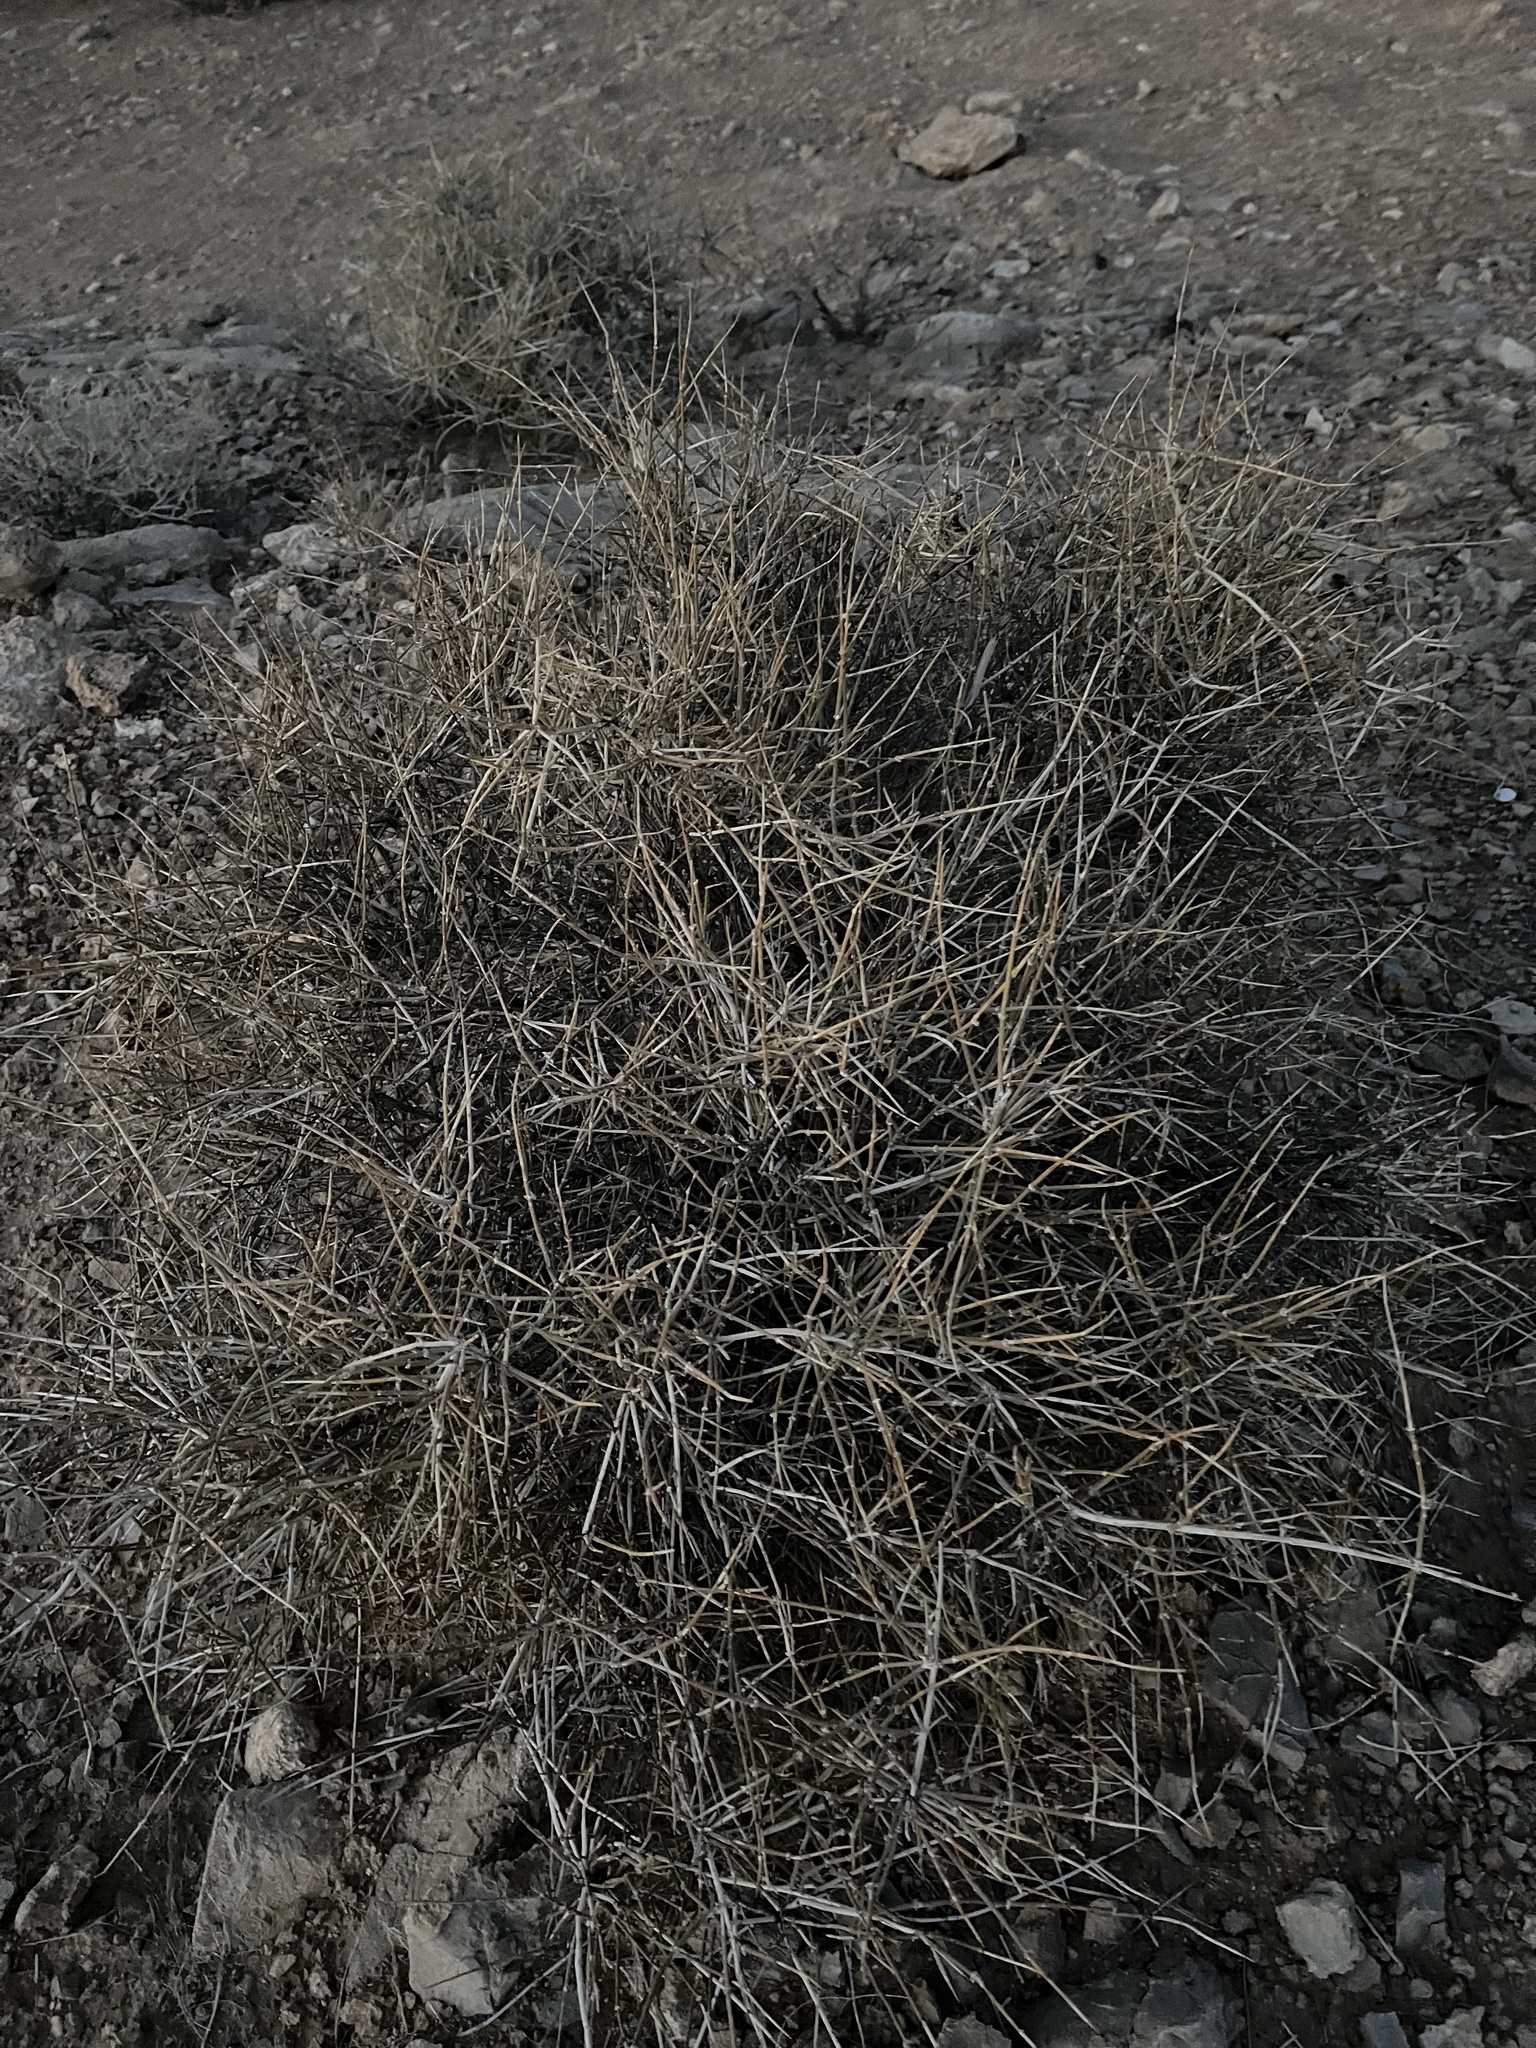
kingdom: Plantae
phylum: Tracheophyta
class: Gnetopsida
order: Ephedrales
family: Ephedraceae
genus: Ephedra
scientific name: Ephedra nevadensis
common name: Gray ephedra
